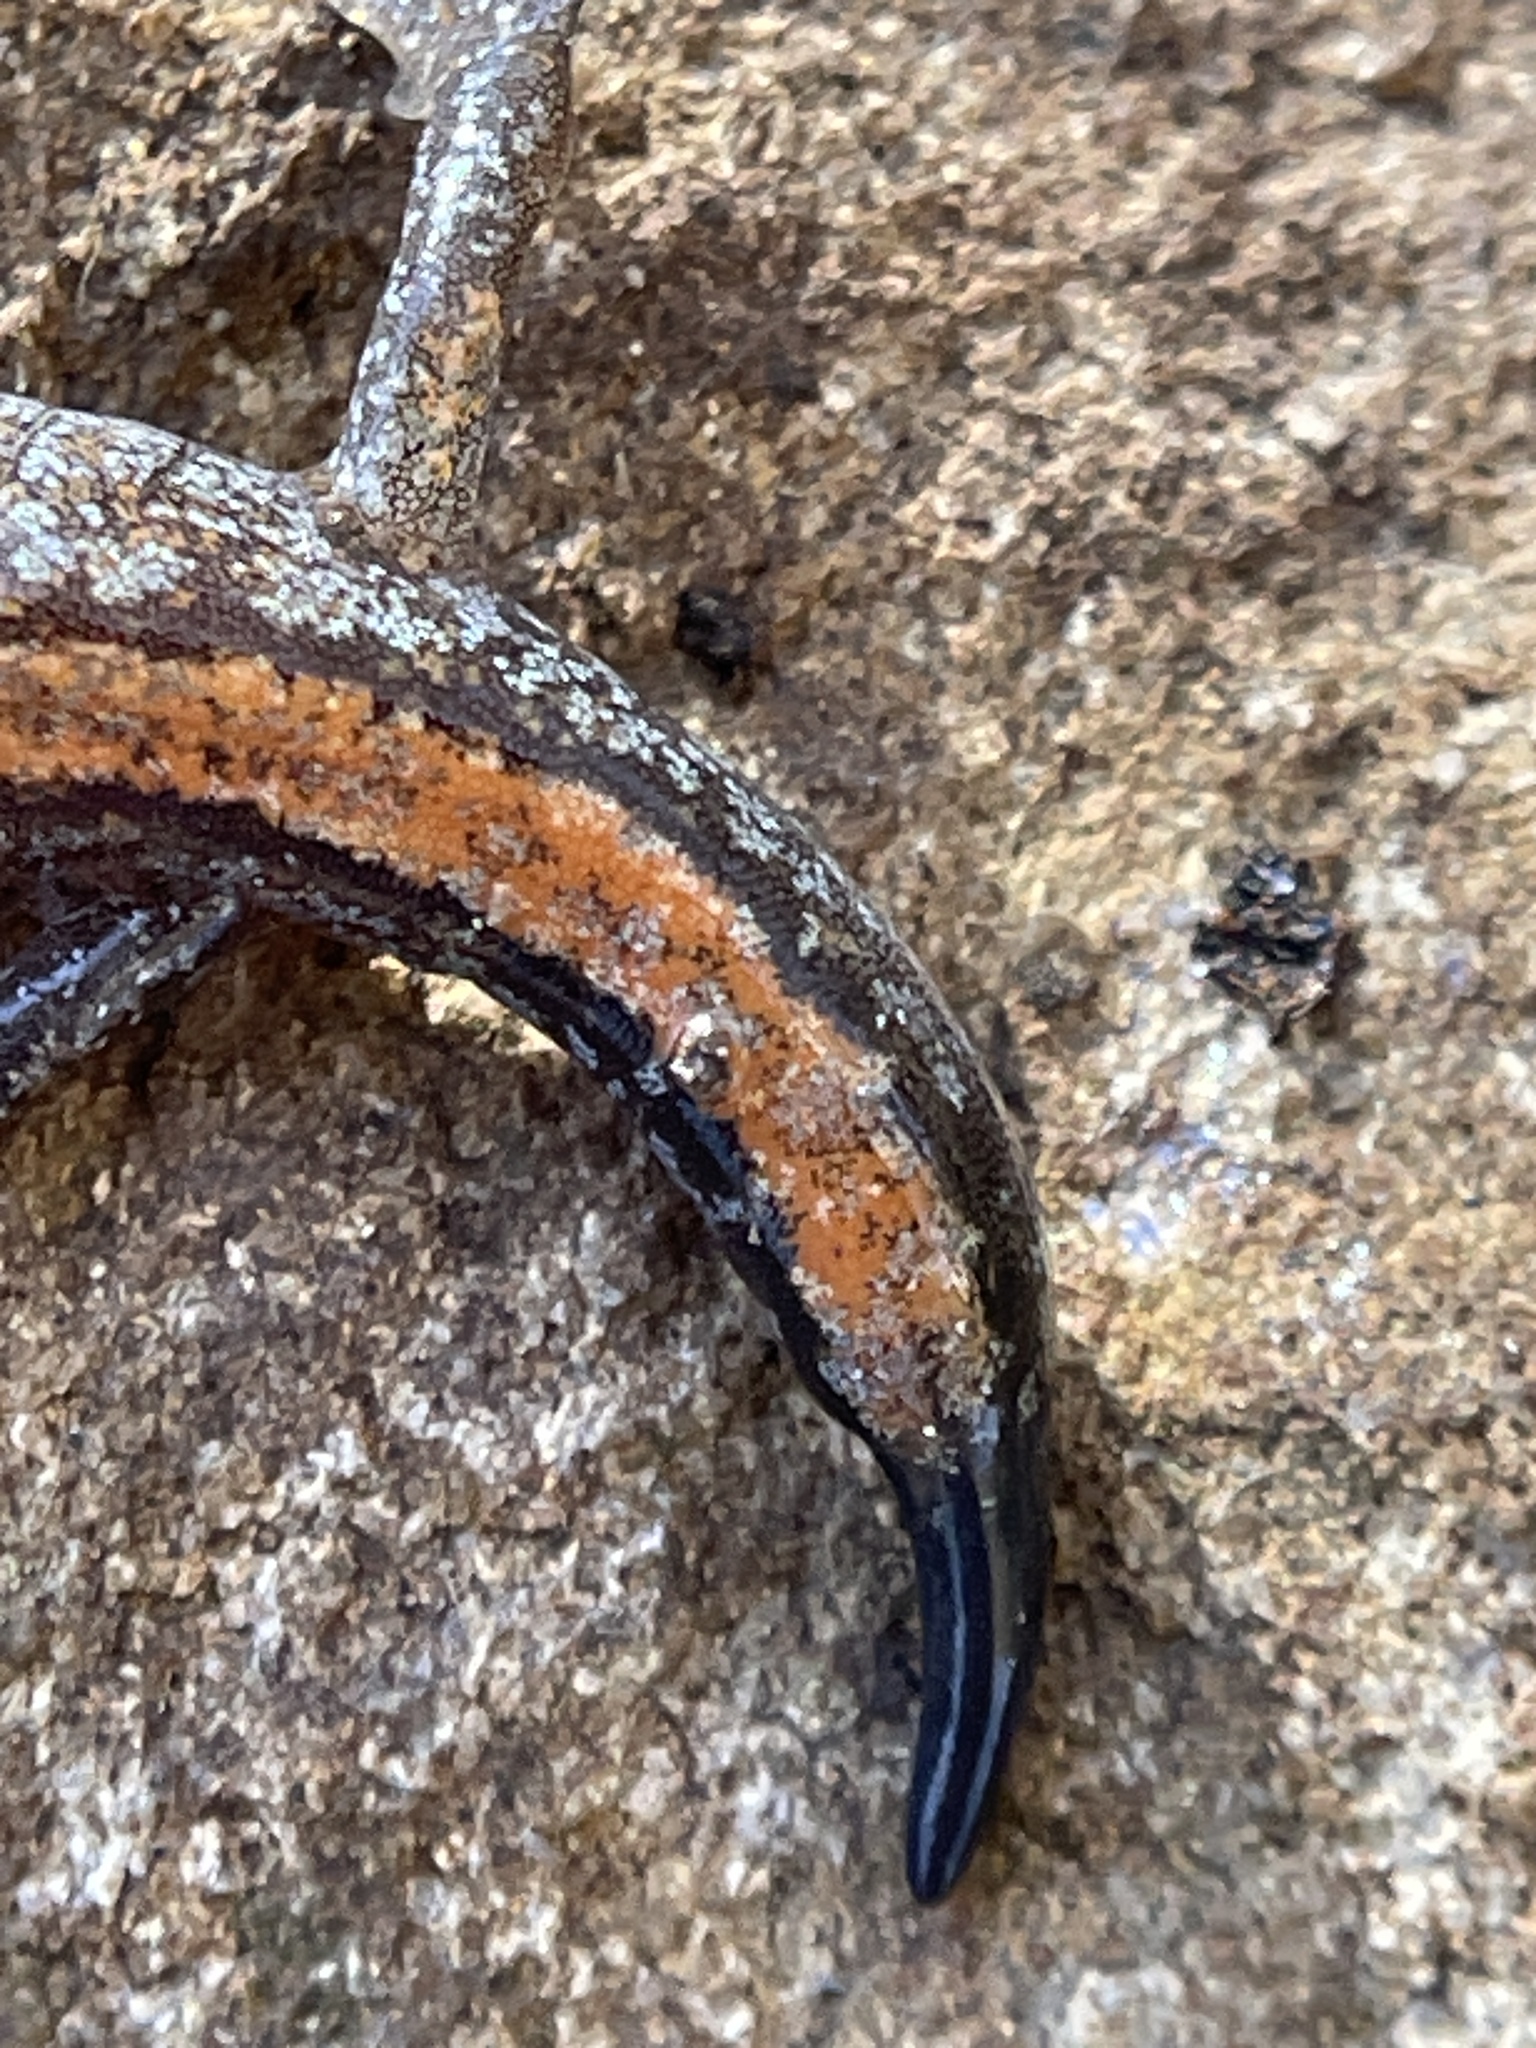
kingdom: Animalia
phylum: Chordata
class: Amphibia
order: Caudata
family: Plethodontidae
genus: Plethodon
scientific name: Plethodon dorsalis
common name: Northern zigzag salamander
